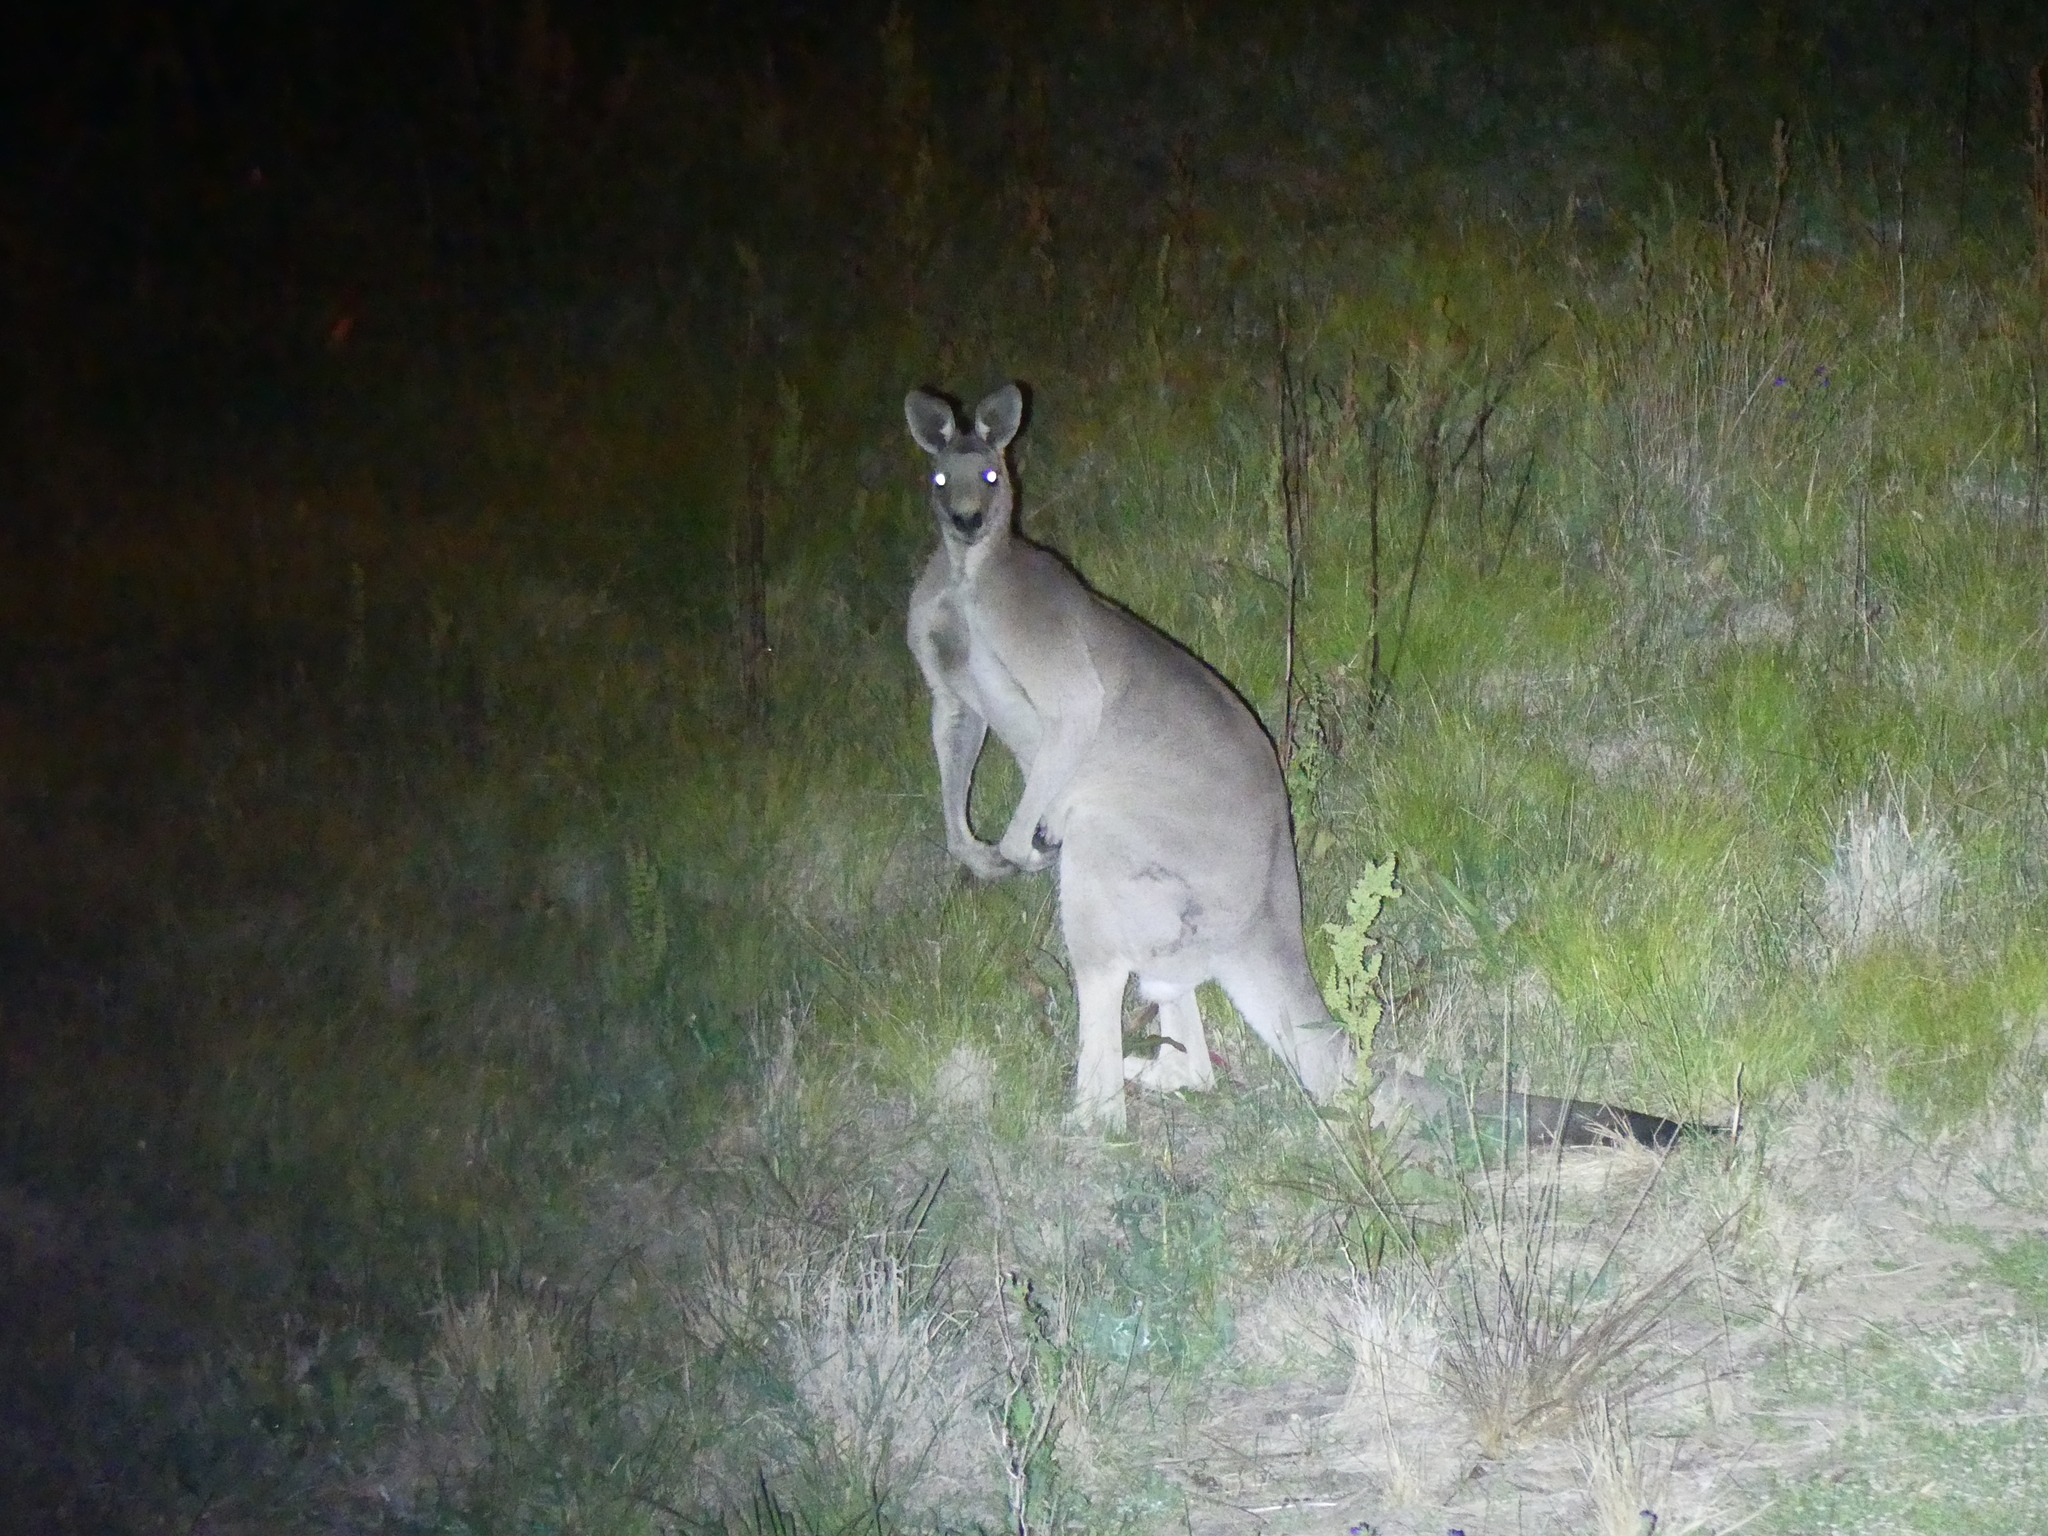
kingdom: Animalia
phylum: Chordata
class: Mammalia
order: Diprotodontia
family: Macropodidae
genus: Macropus
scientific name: Macropus giganteus
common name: Eastern grey kangaroo
